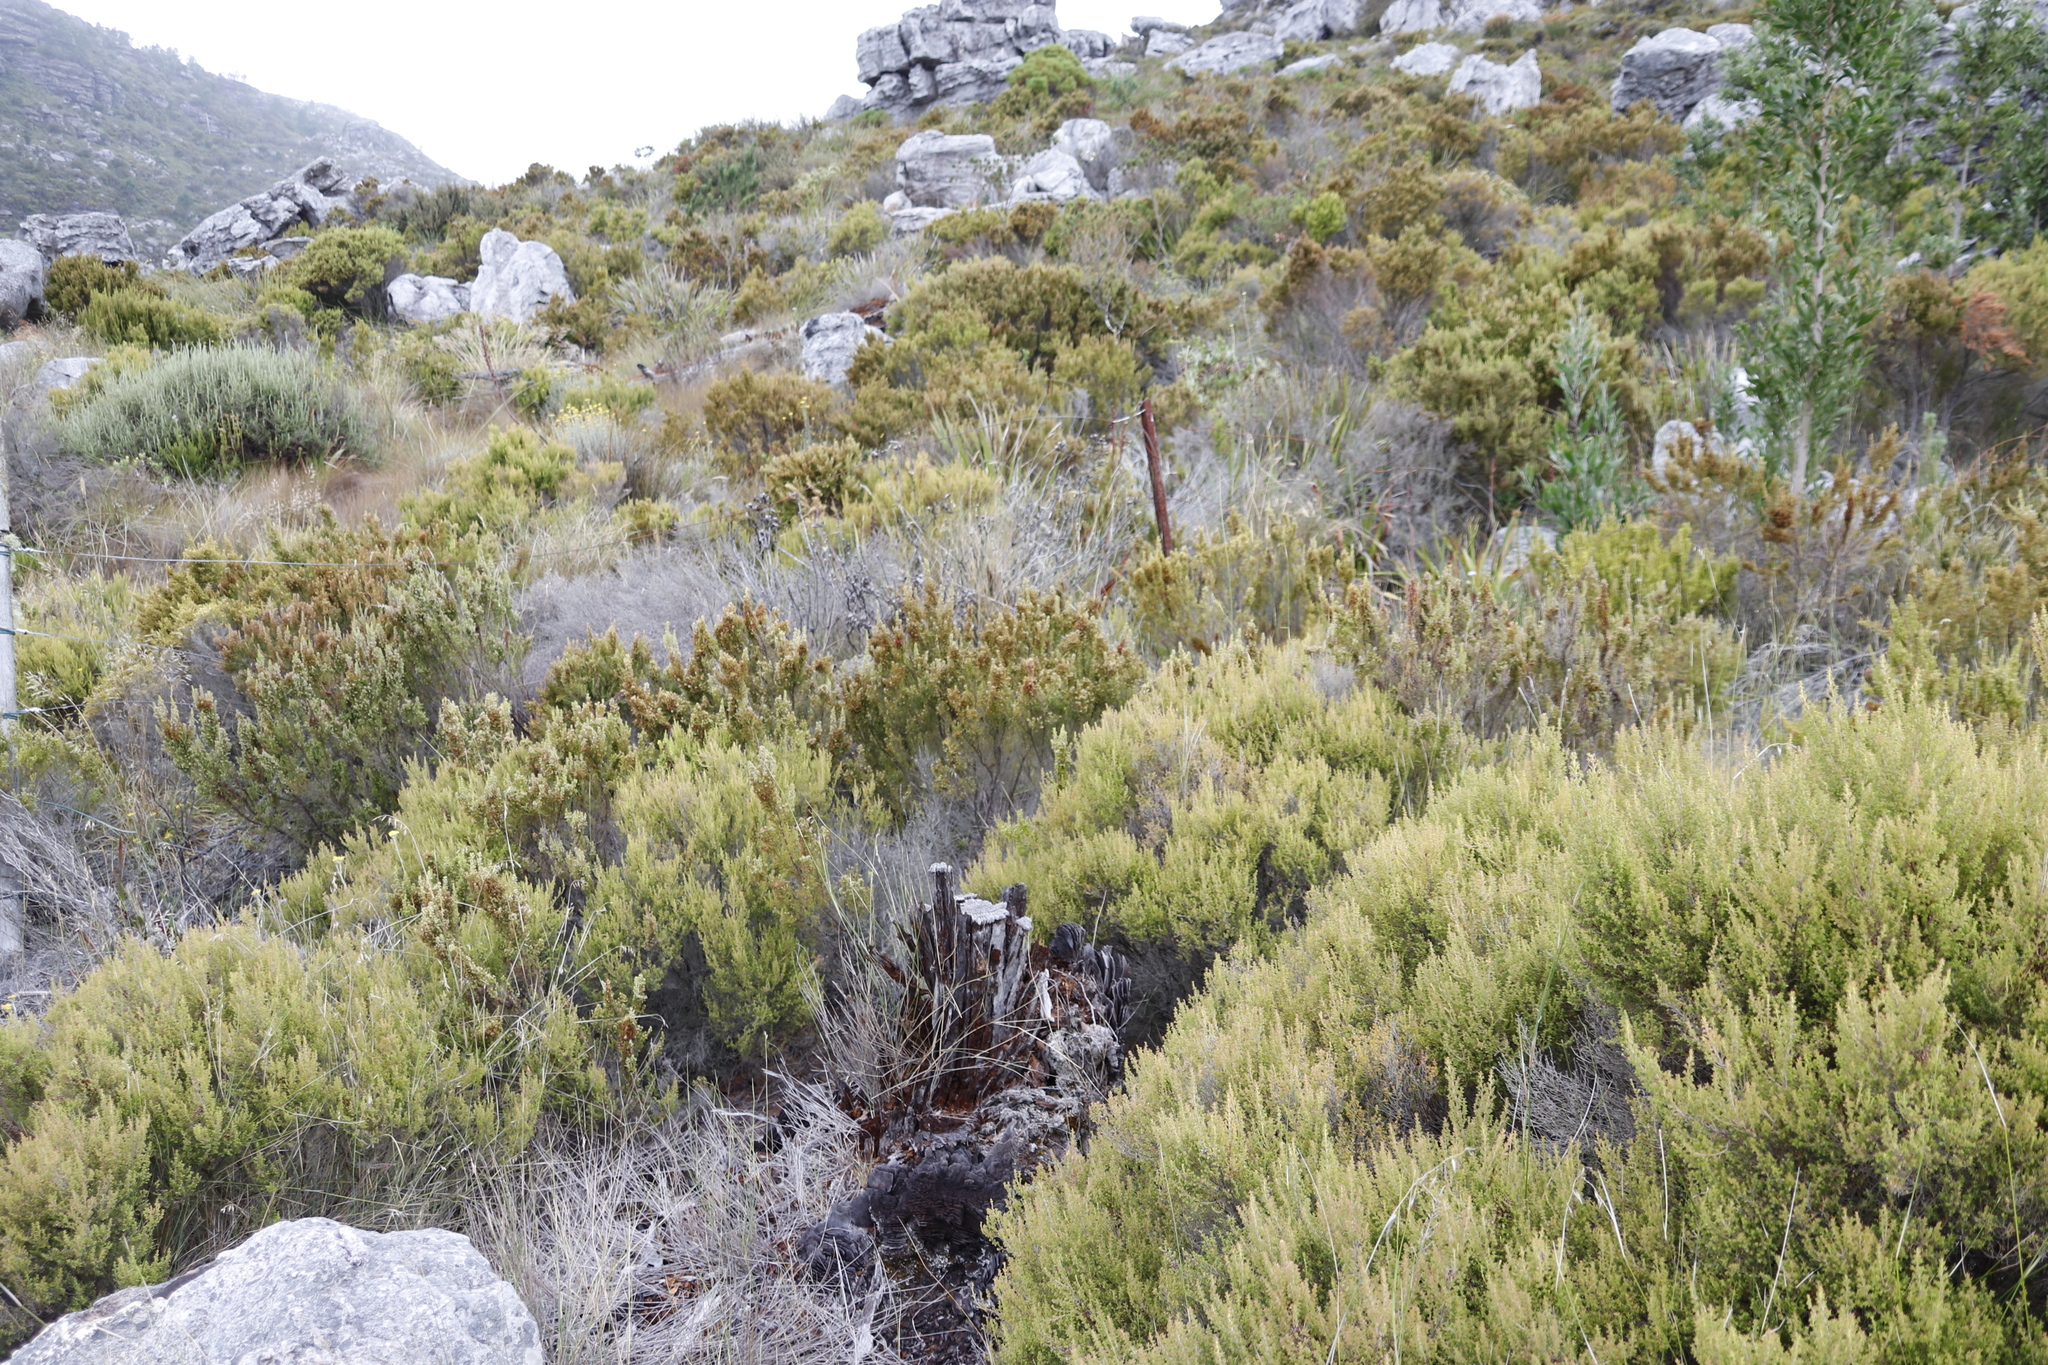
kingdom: Plantae
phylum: Tracheophyta
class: Magnoliopsida
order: Ericales
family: Ericaceae
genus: Erica
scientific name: Erica hispidula
